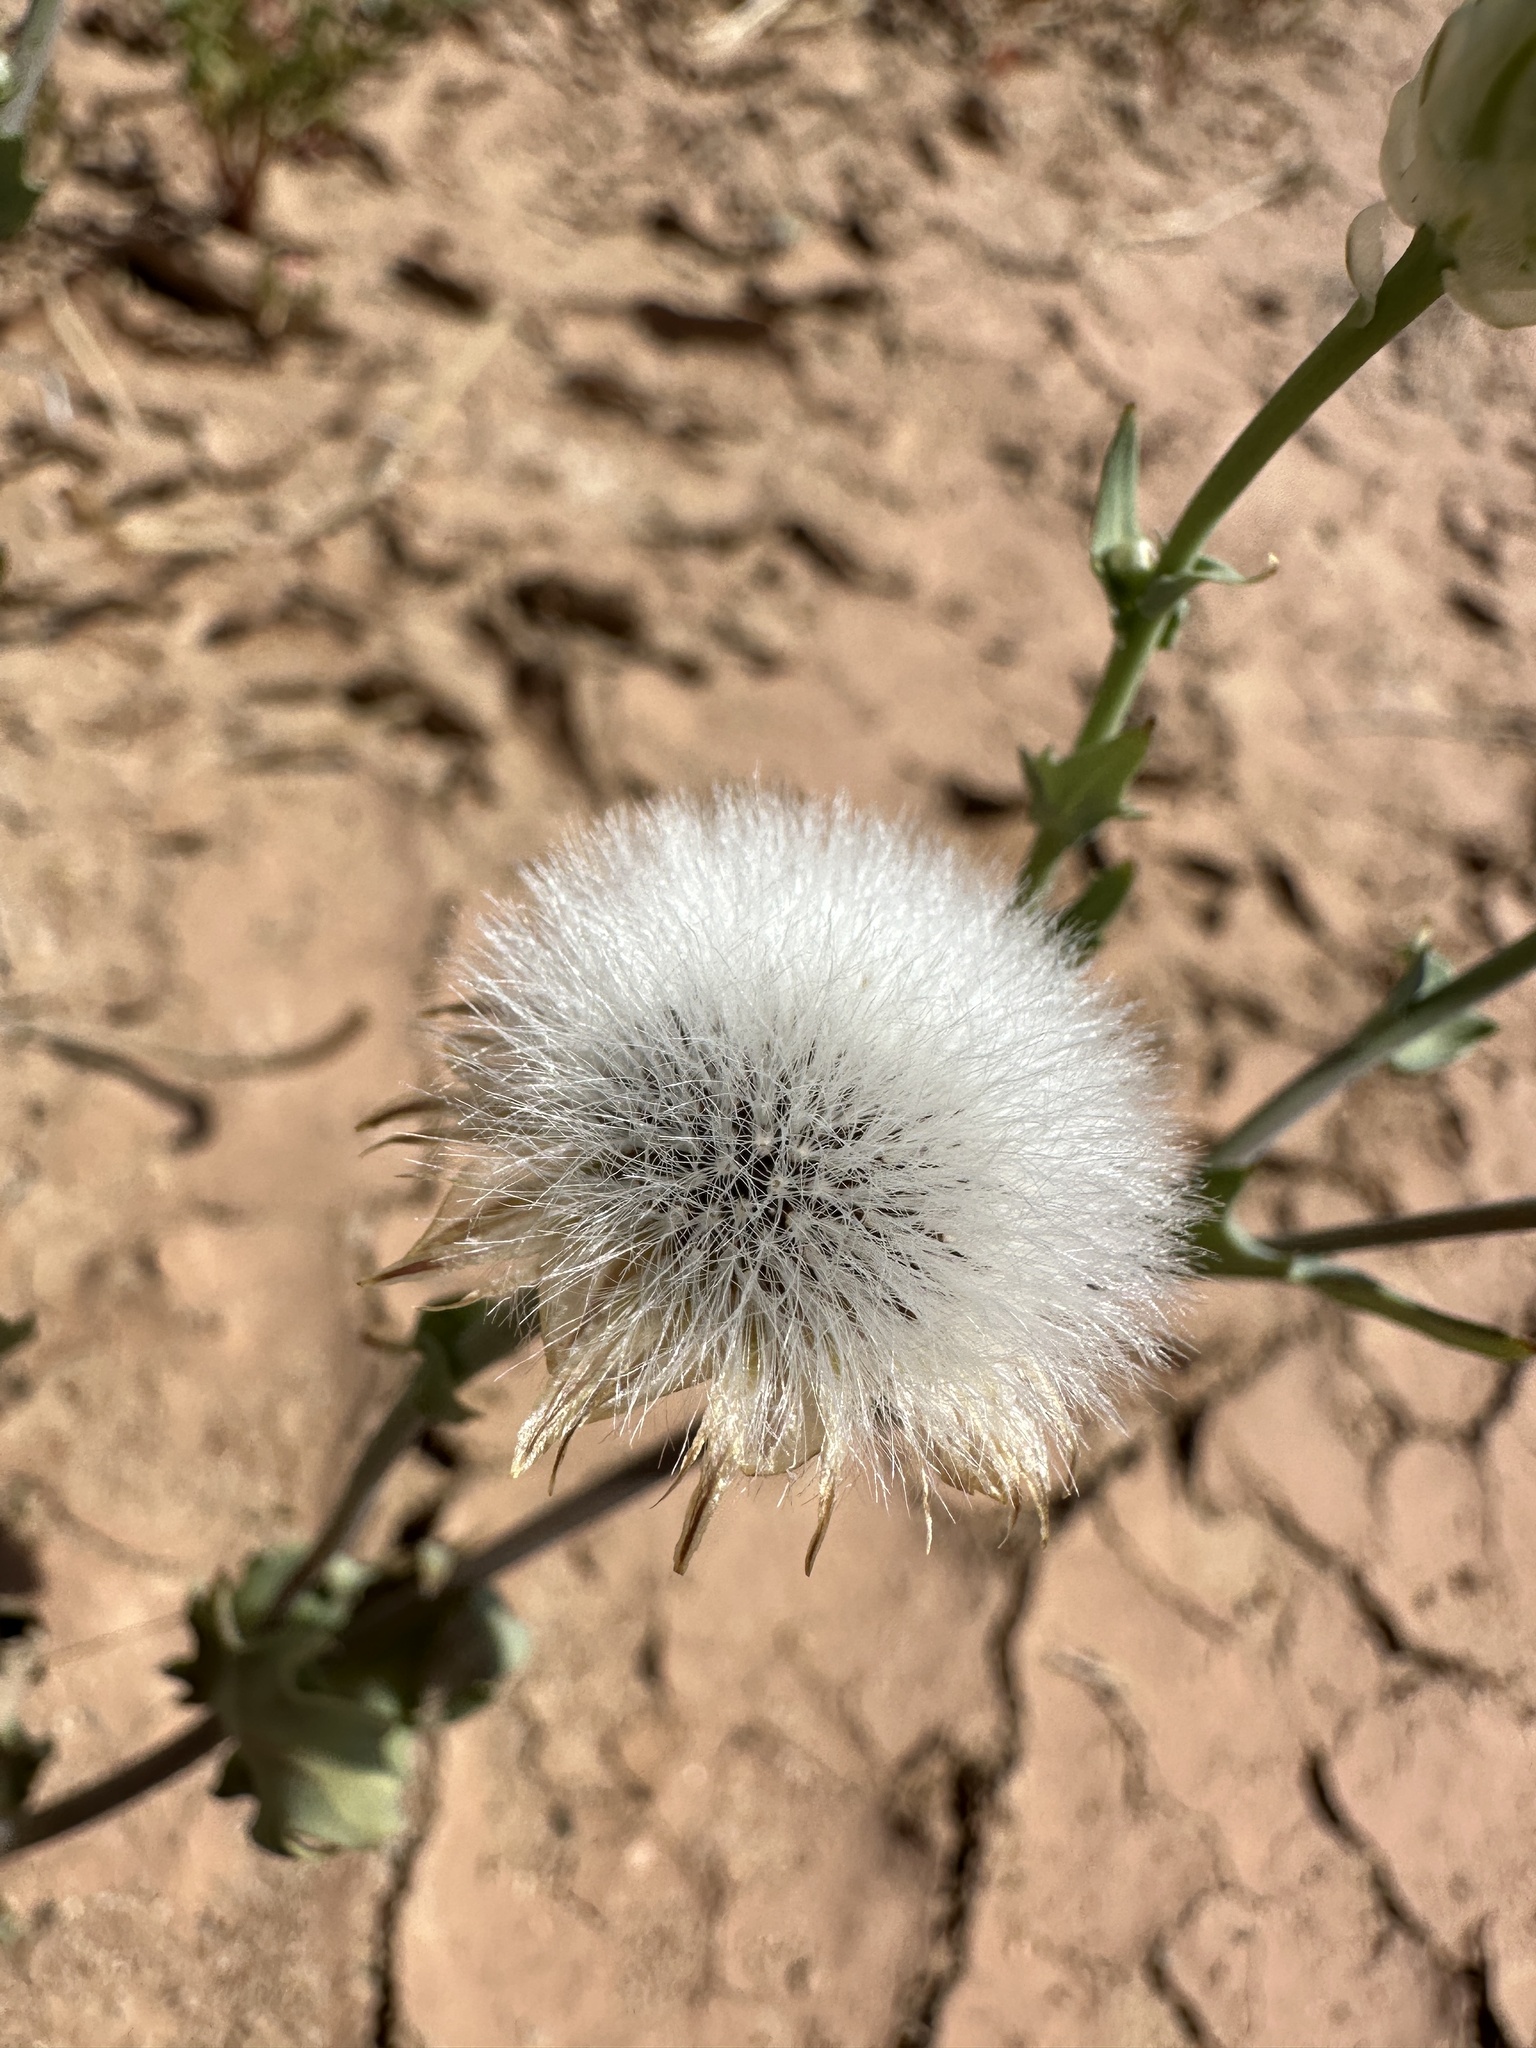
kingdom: Plantae
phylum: Tracheophyta
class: Magnoliopsida
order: Asterales
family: Asteraceae
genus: Malacothrix
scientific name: Malacothrix coulteri
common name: Snake's-head
